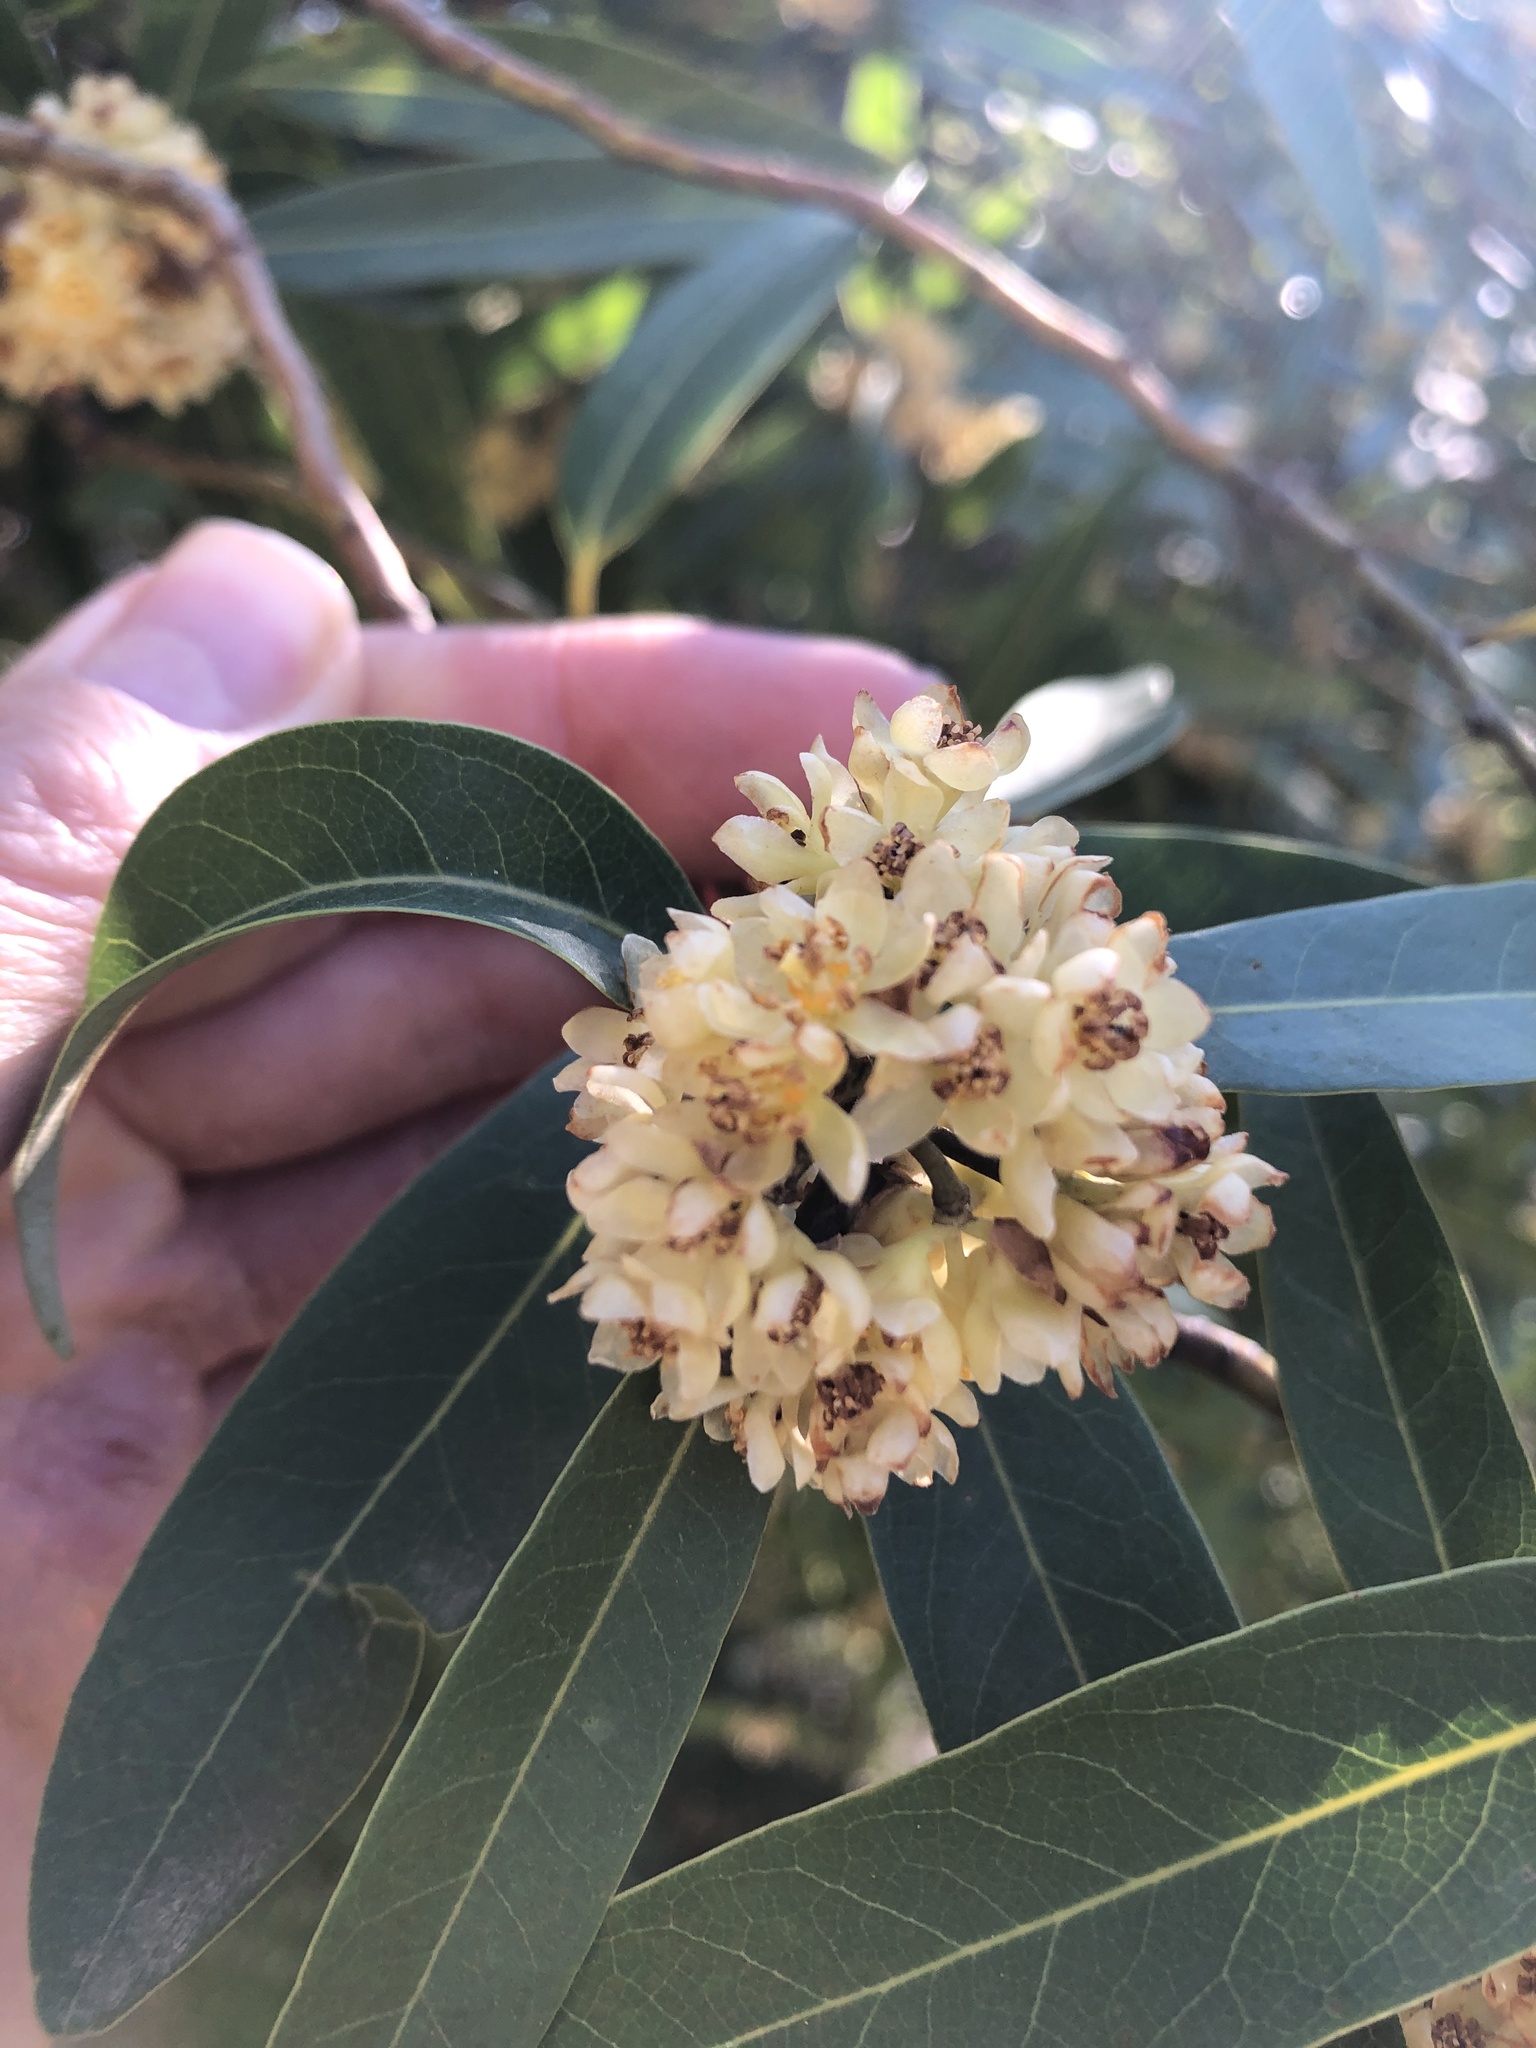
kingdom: Plantae
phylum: Tracheophyta
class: Magnoliopsida
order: Laurales
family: Lauraceae
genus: Umbellularia
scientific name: Umbellularia californica
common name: California bay
